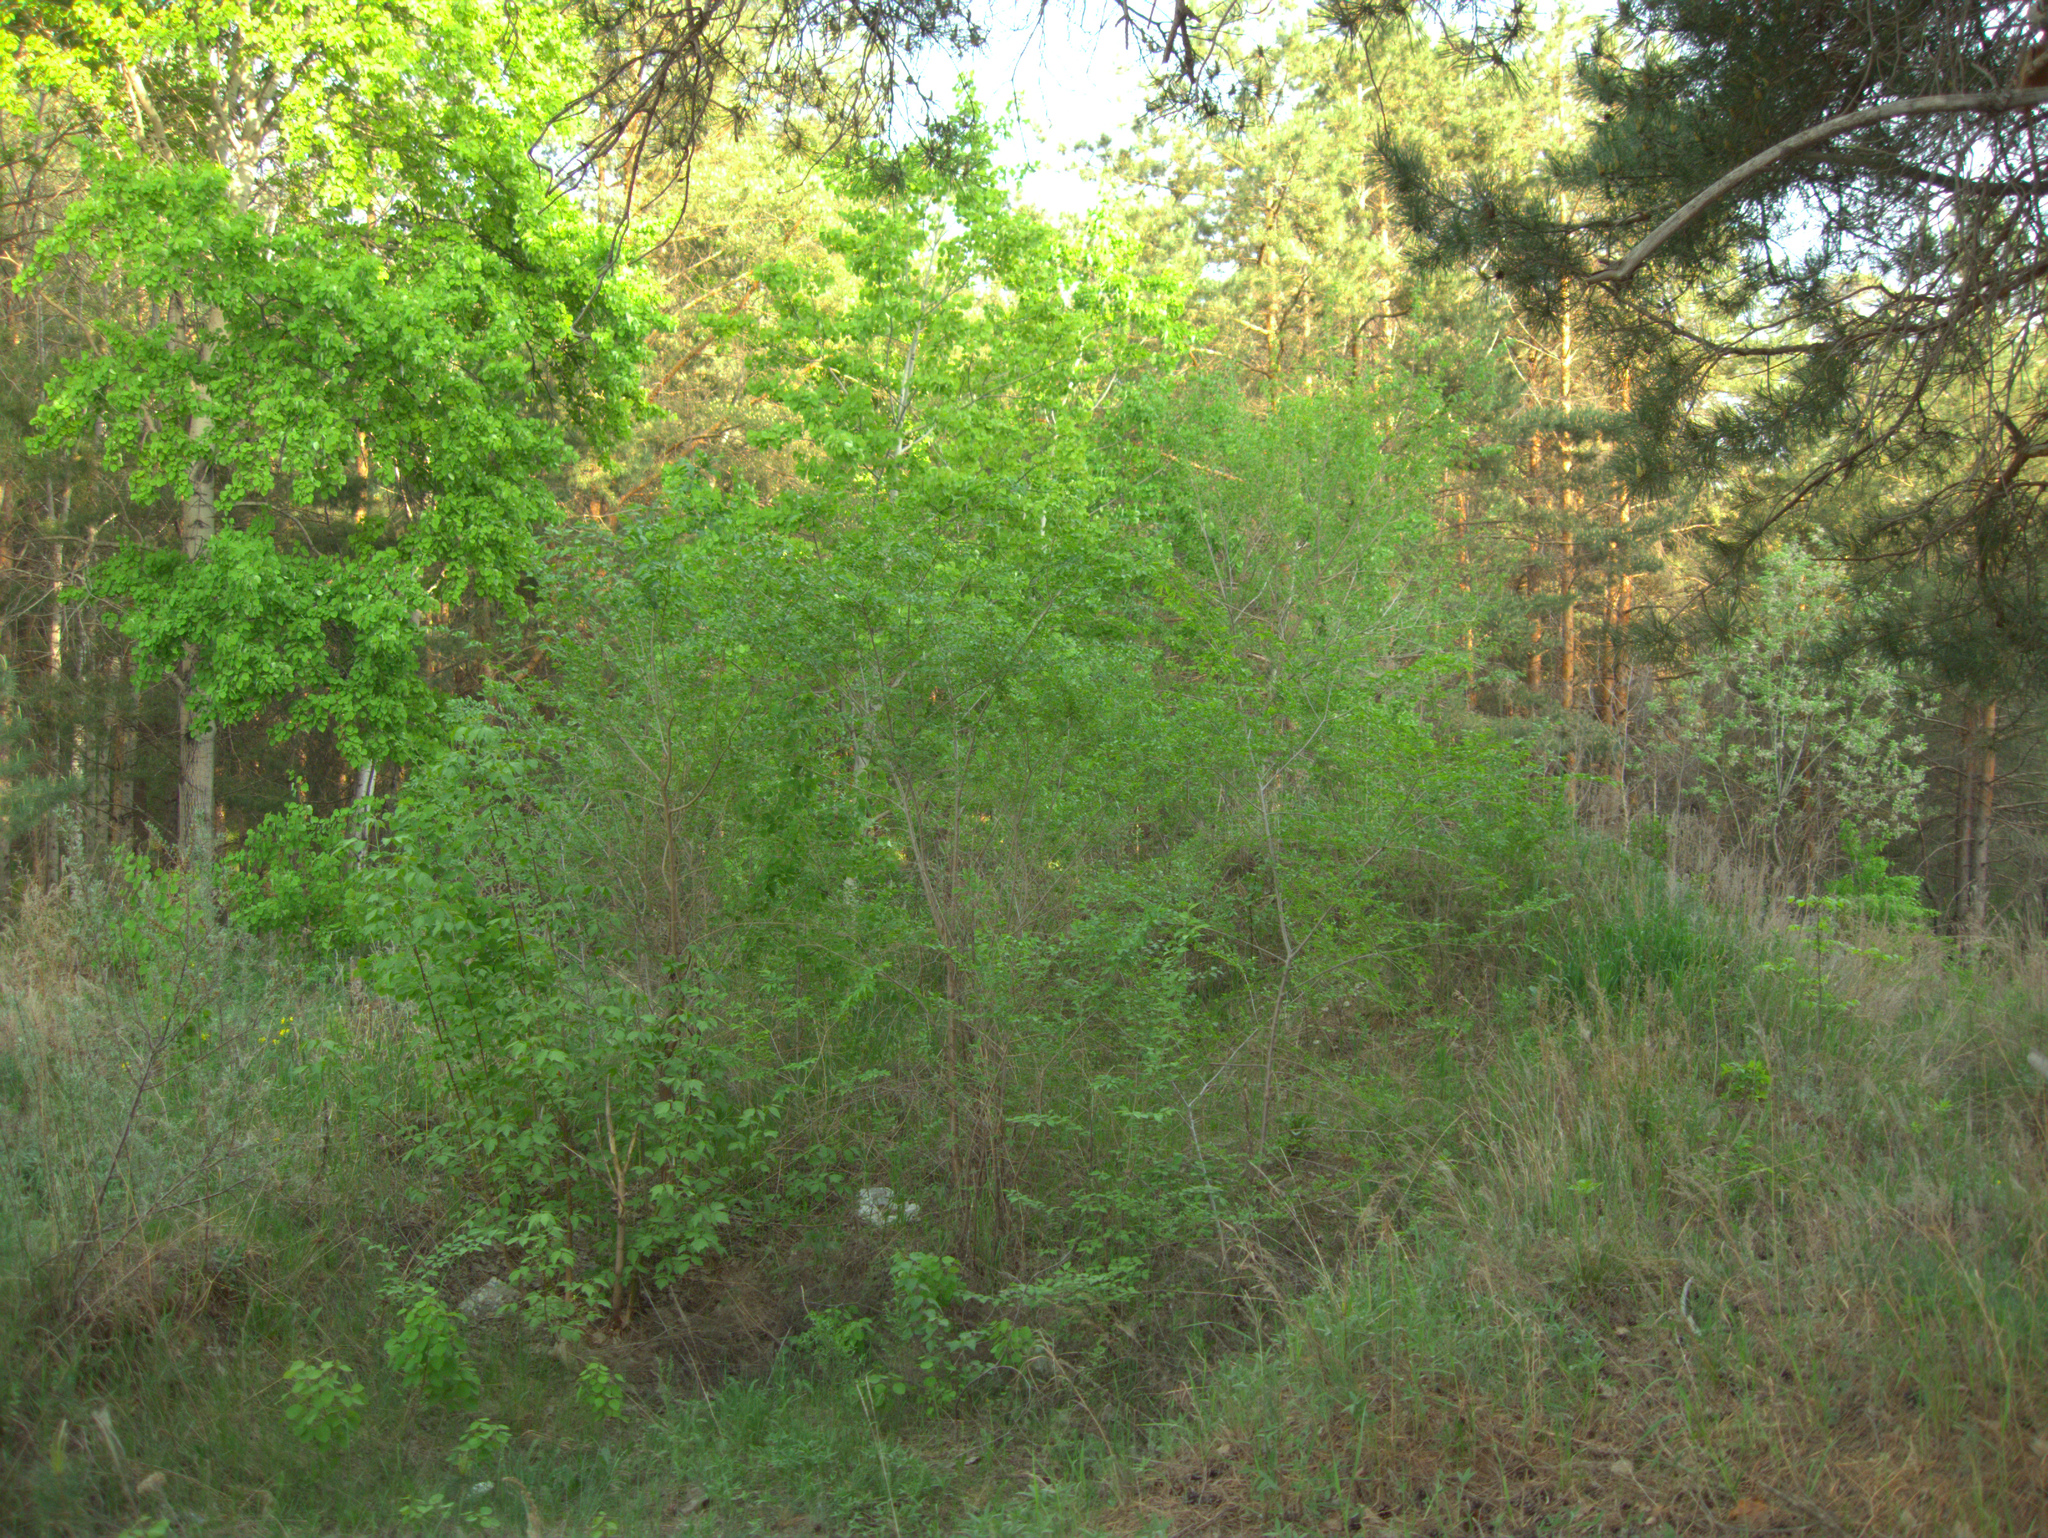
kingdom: Plantae
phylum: Tracheophyta
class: Magnoliopsida
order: Rosales
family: Ulmaceae
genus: Ulmus
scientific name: Ulmus pumila
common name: Siberian elm
